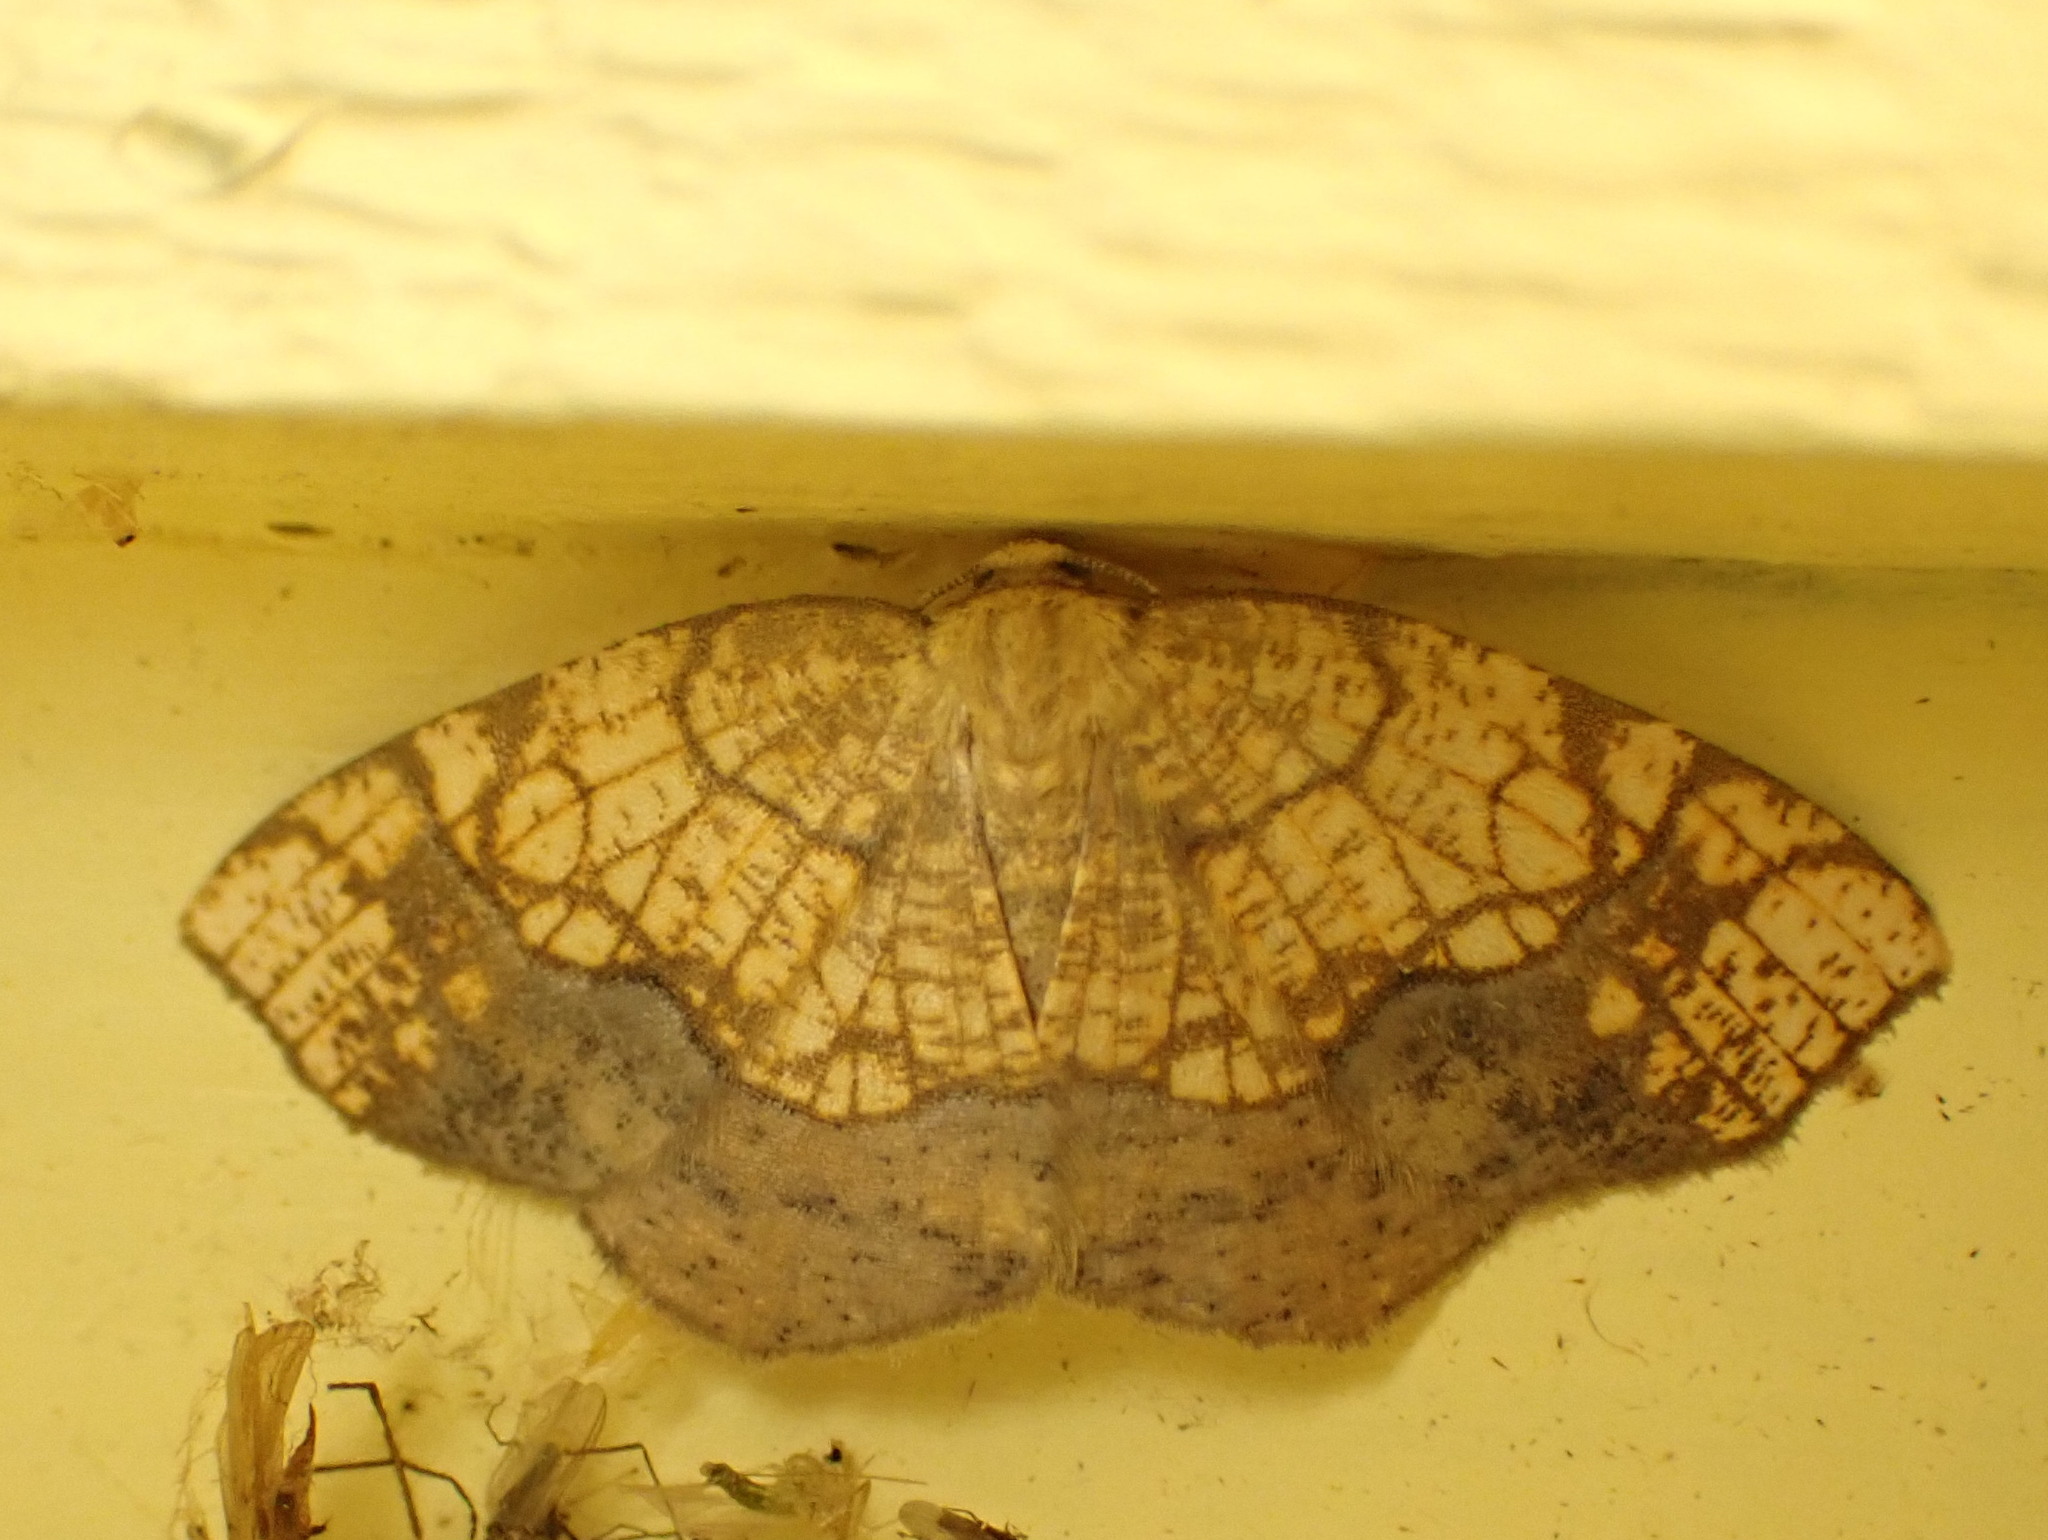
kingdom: Animalia
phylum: Arthropoda
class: Insecta
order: Lepidoptera
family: Geometridae
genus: Nematocampa
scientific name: Nematocampa resistaria
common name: Horned spanworm moth
